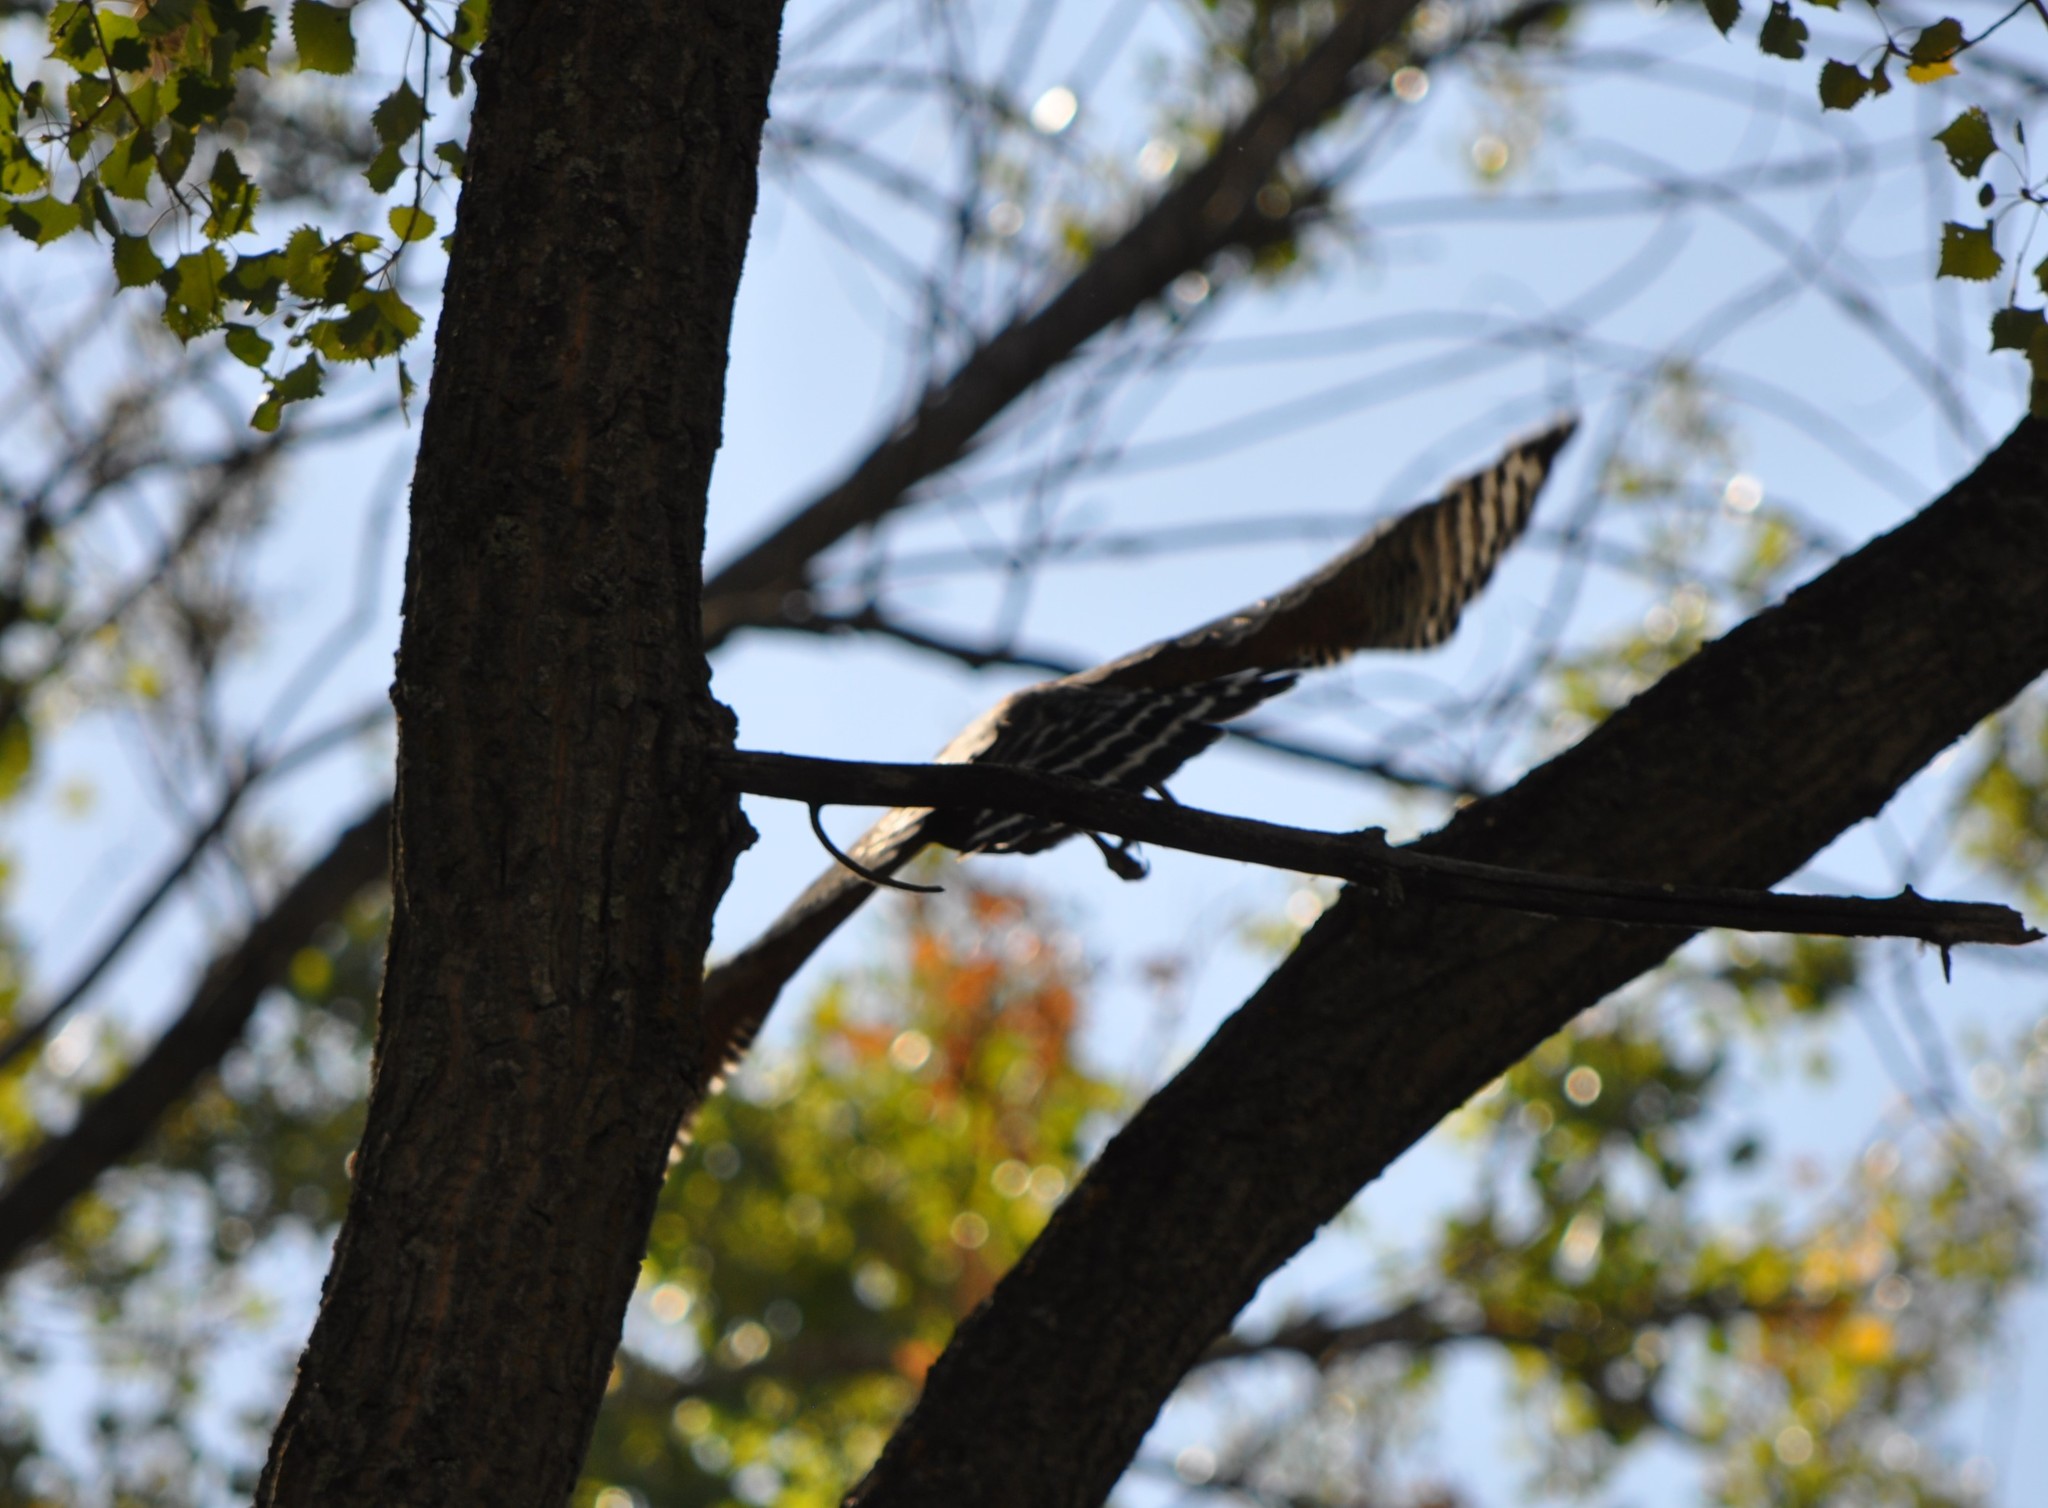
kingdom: Animalia
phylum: Chordata
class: Aves
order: Accipitriformes
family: Accipitridae
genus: Buteo
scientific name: Buteo lineatus
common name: Red-shouldered hawk
